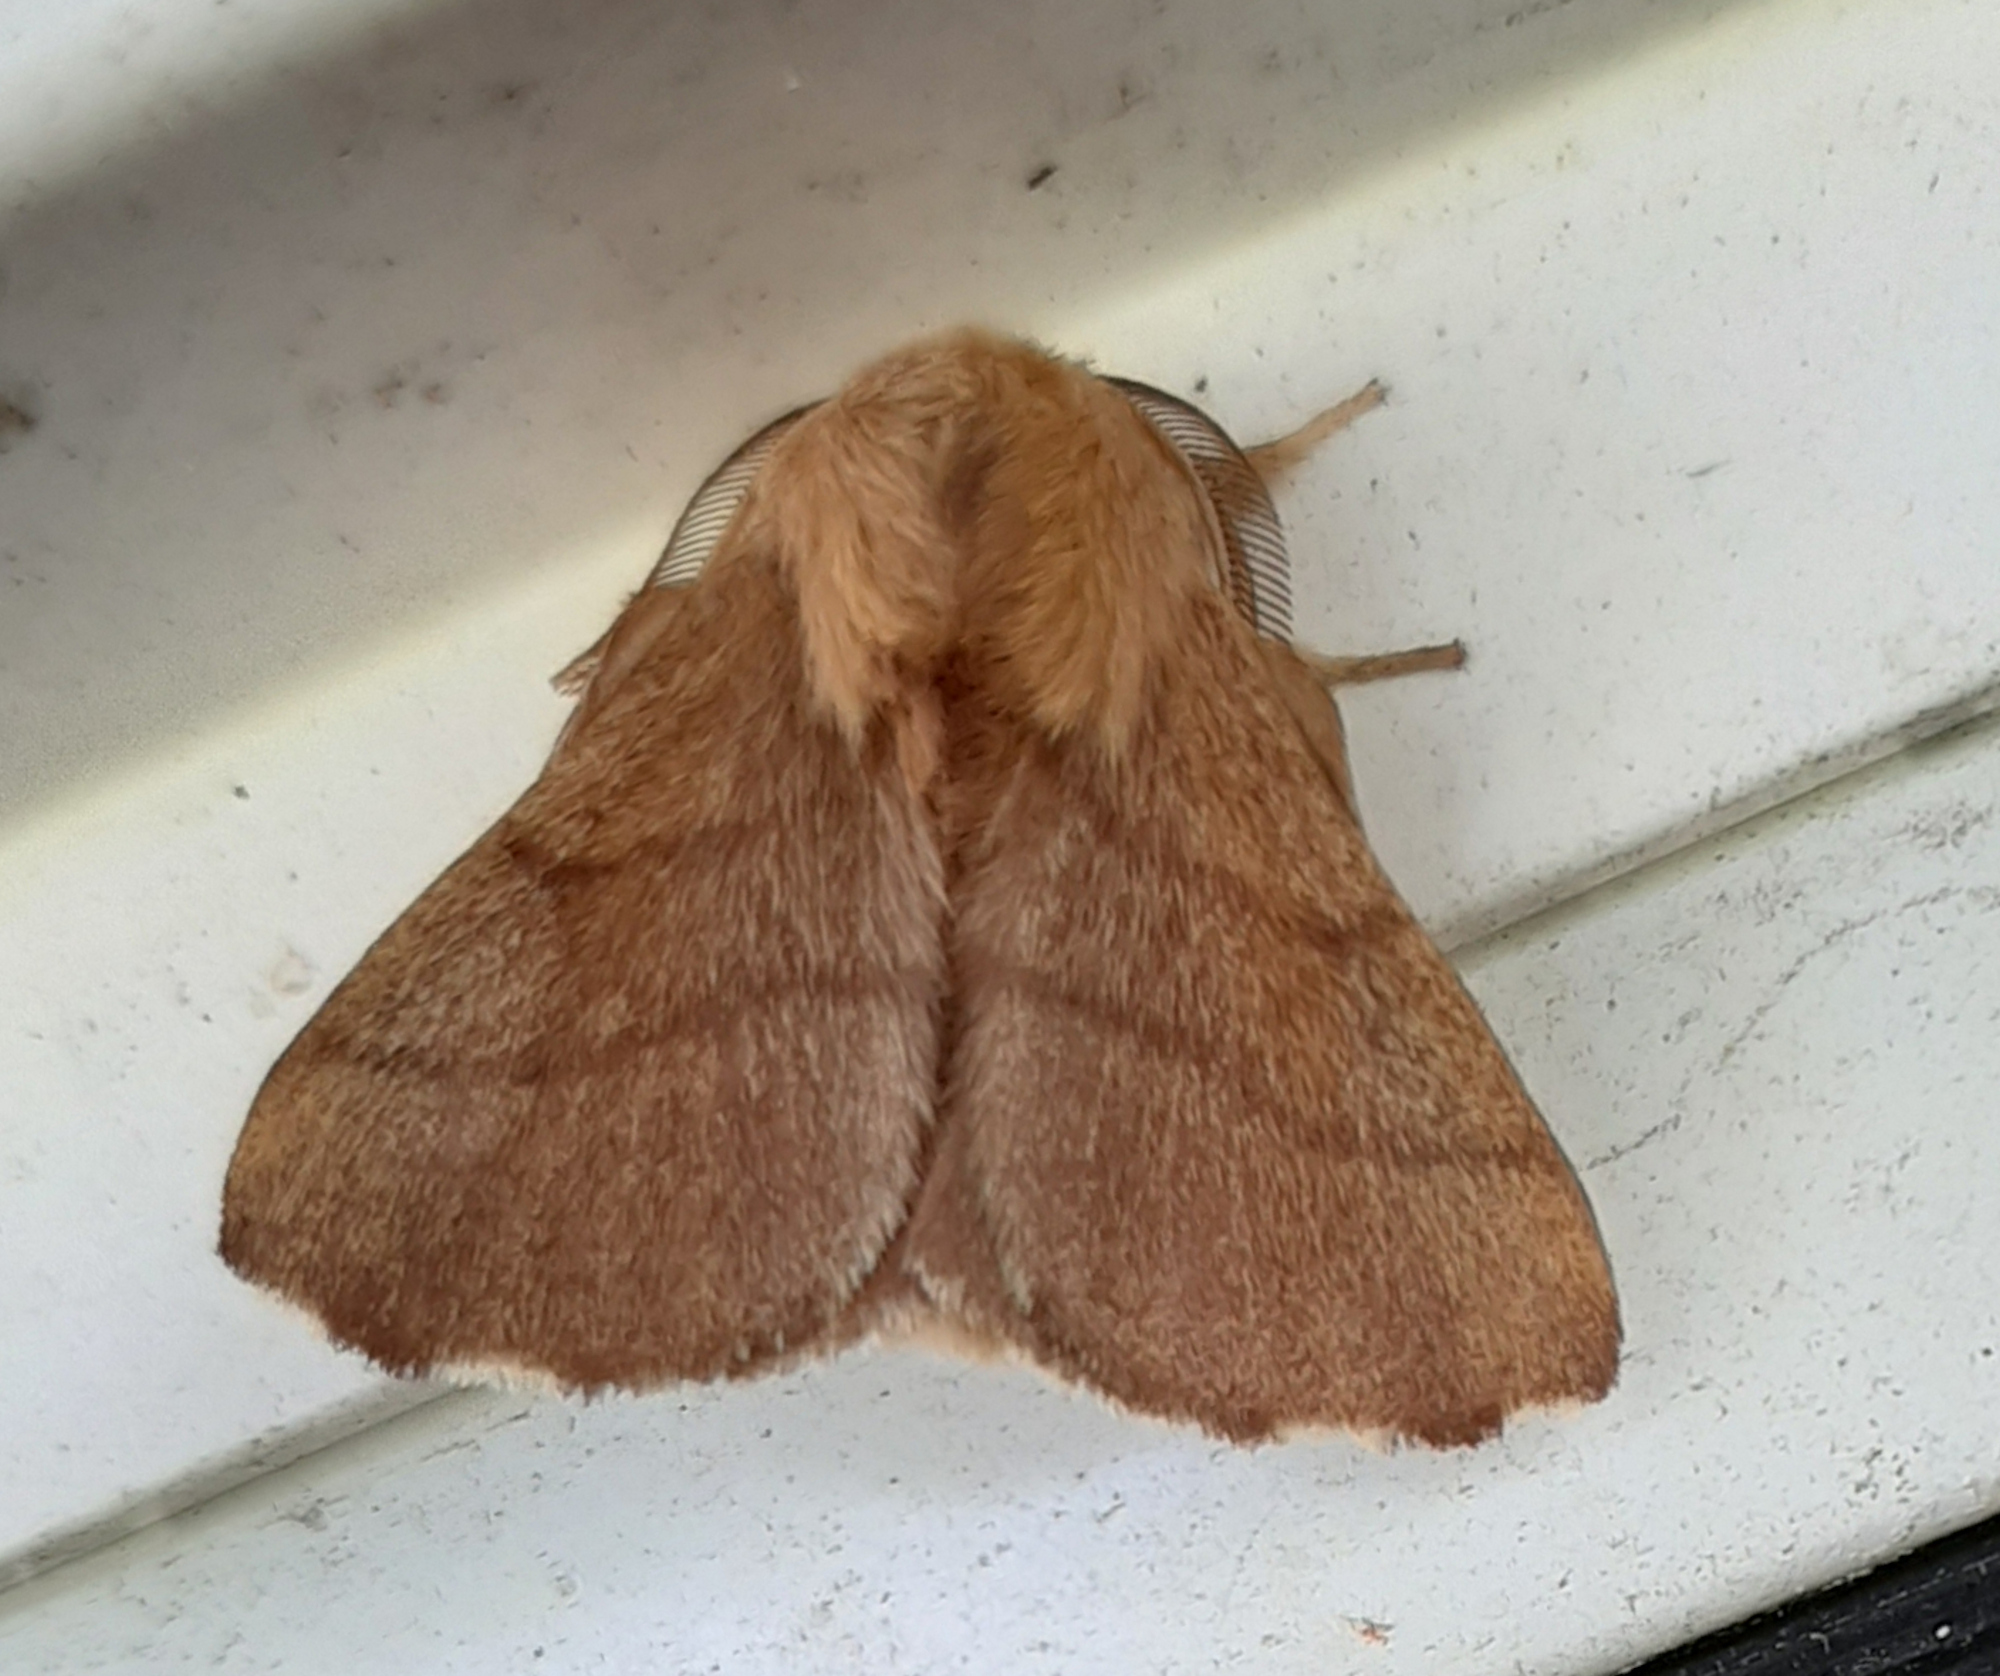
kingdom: Animalia
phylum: Arthropoda
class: Insecta
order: Lepidoptera
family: Lasiocampidae
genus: Malacosoma
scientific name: Malacosoma disstria
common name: Forest tent caterpillar
